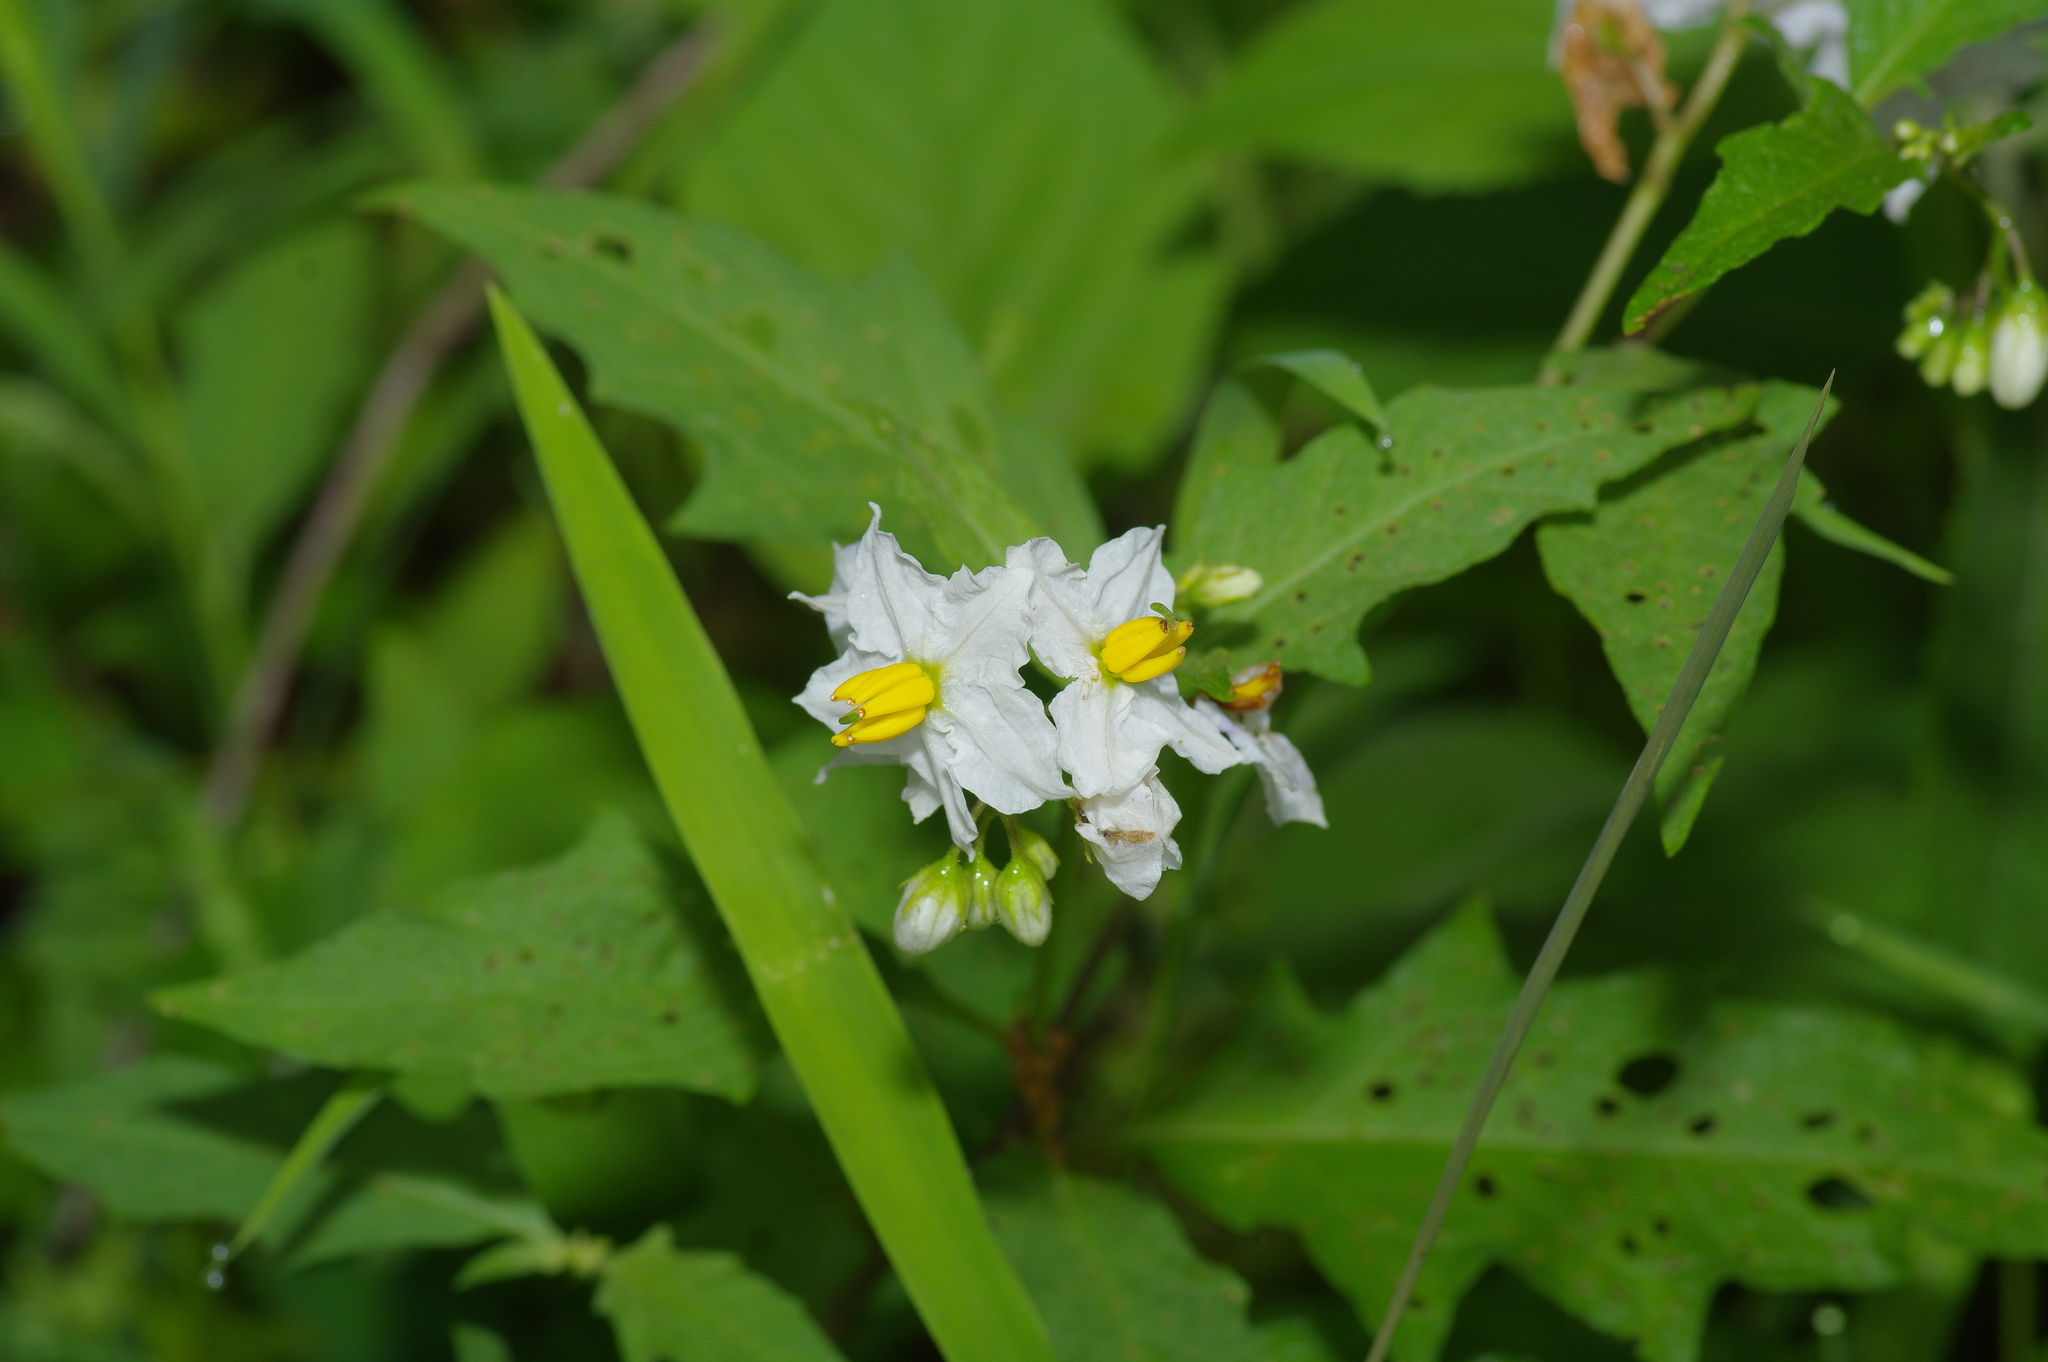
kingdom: Plantae
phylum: Tracheophyta
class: Magnoliopsida
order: Solanales
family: Solanaceae
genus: Solanum
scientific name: Solanum carolinense
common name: Horse-nettle
